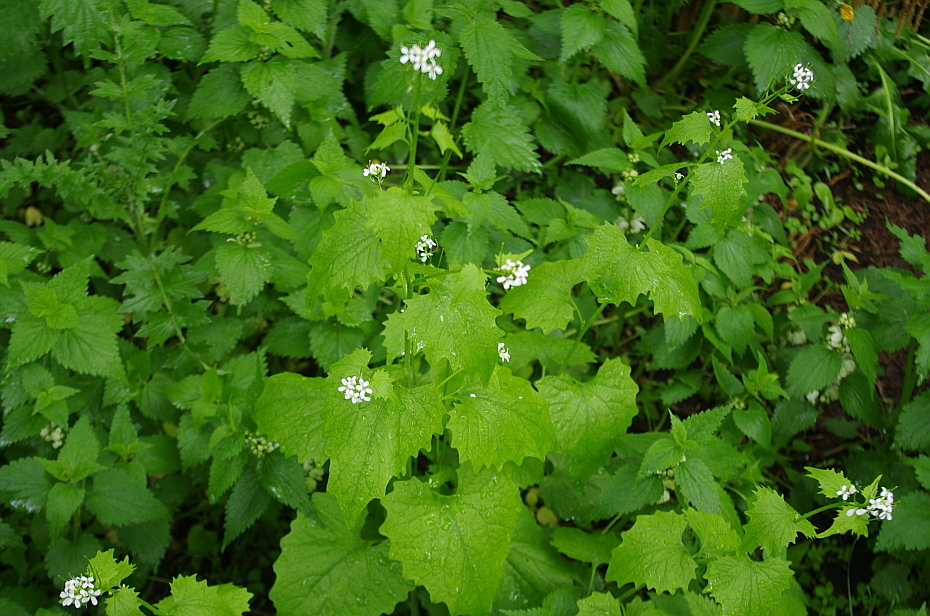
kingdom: Plantae
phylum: Tracheophyta
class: Magnoliopsida
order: Brassicales
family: Brassicaceae
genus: Alliaria
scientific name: Alliaria petiolata
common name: Garlic mustard
